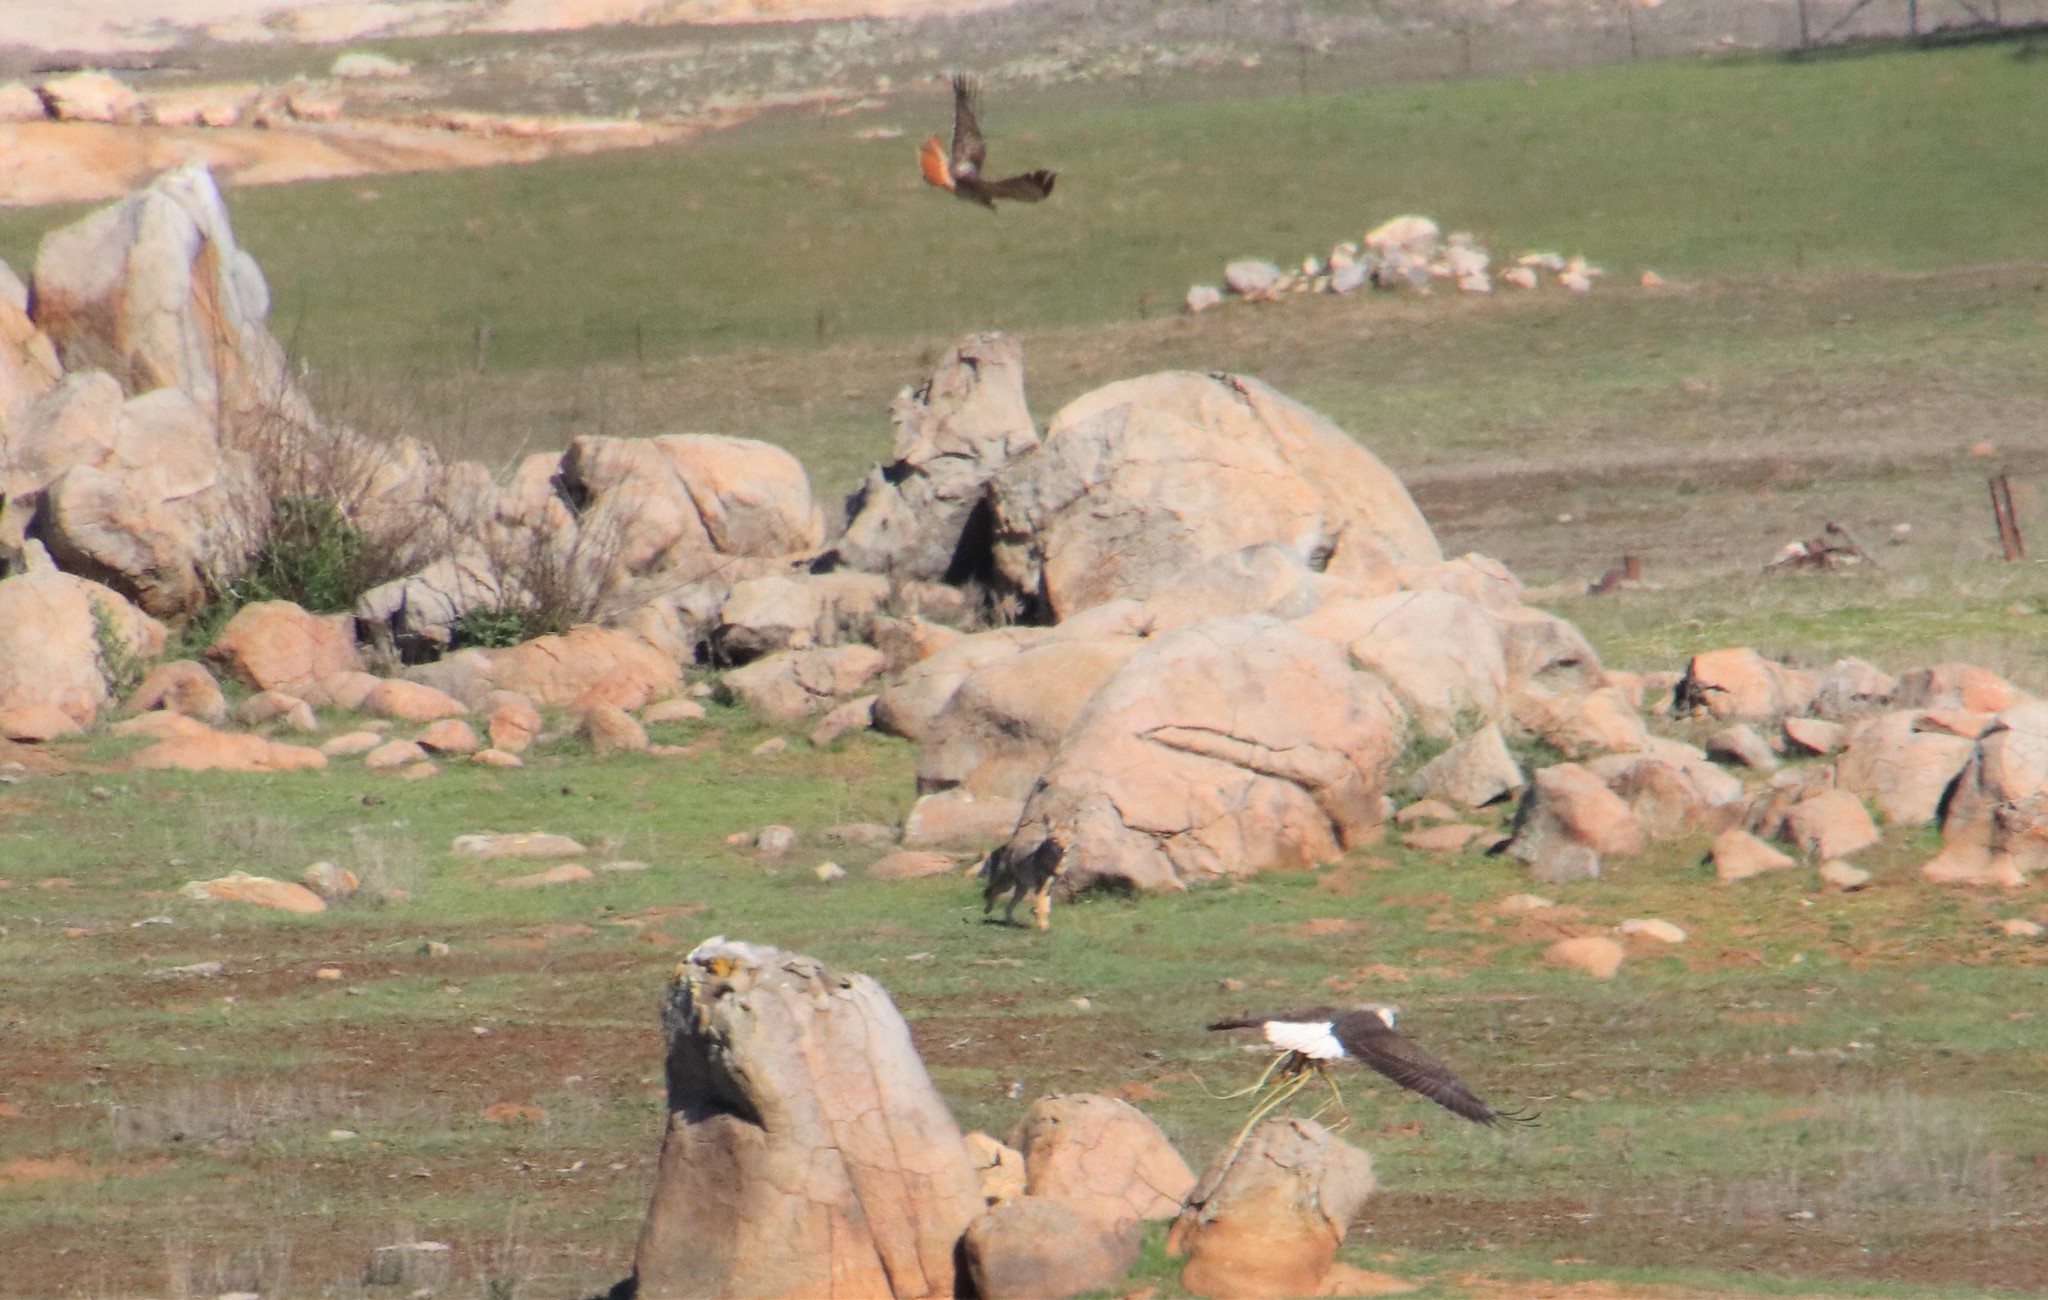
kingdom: Animalia
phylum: Chordata
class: Mammalia
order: Carnivora
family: Canidae
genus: Canis
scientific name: Canis latrans
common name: Coyote
